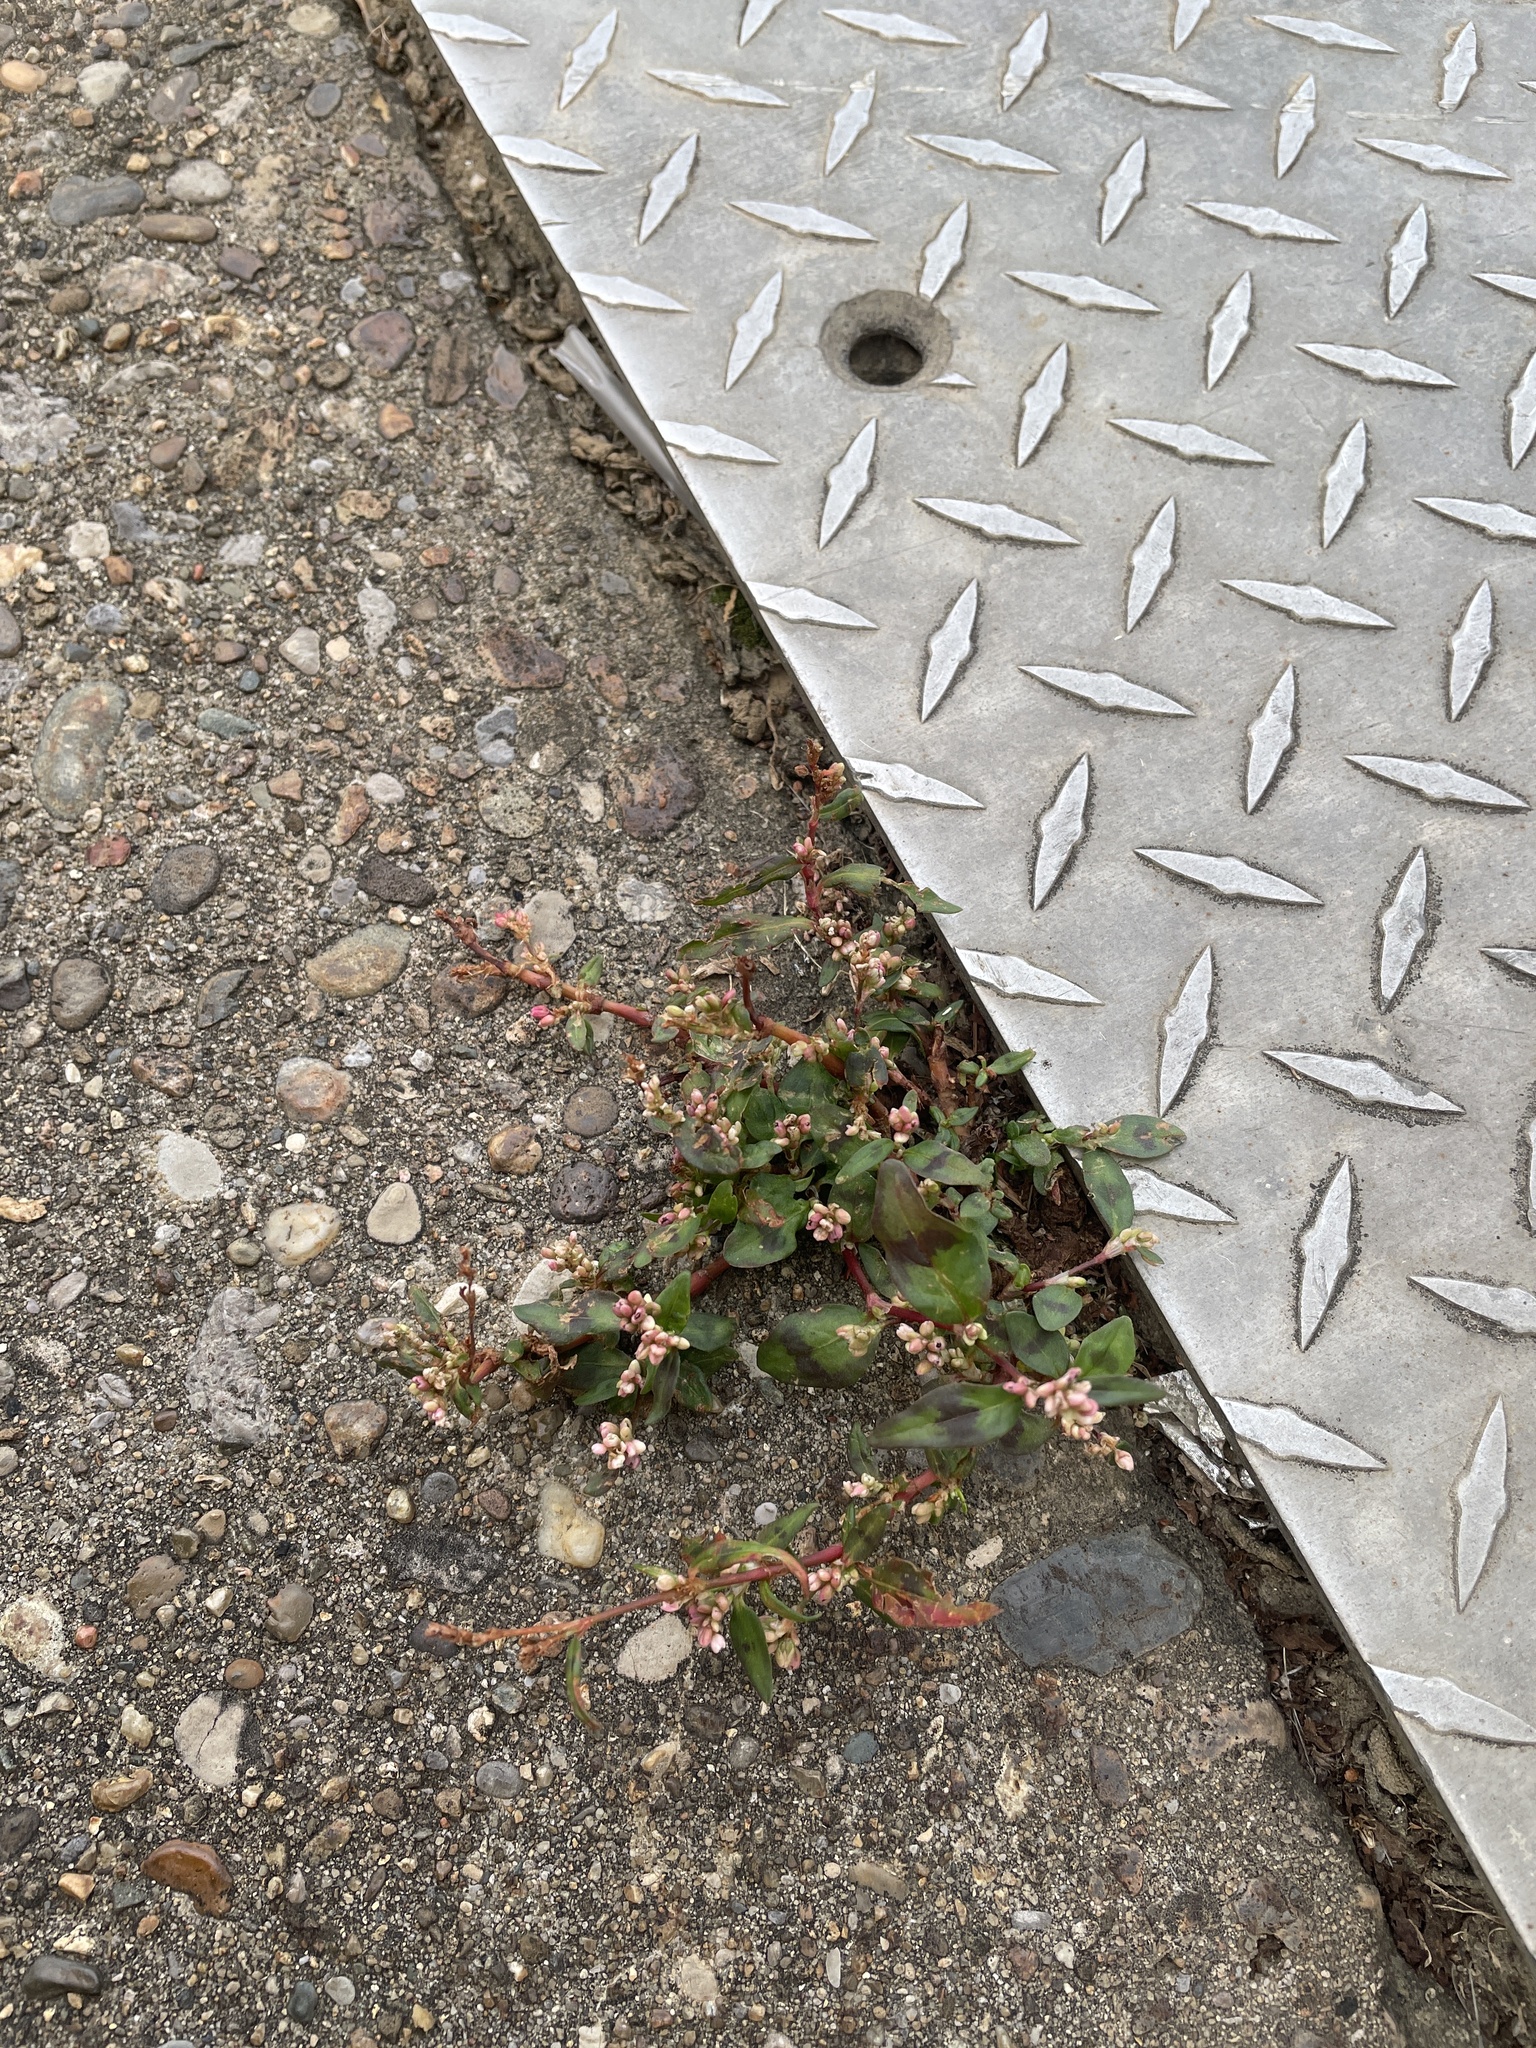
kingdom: Plantae
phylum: Tracheophyta
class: Magnoliopsida
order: Caryophyllales
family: Polygonaceae
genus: Persicaria
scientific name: Persicaria maculosa
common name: Redshank
